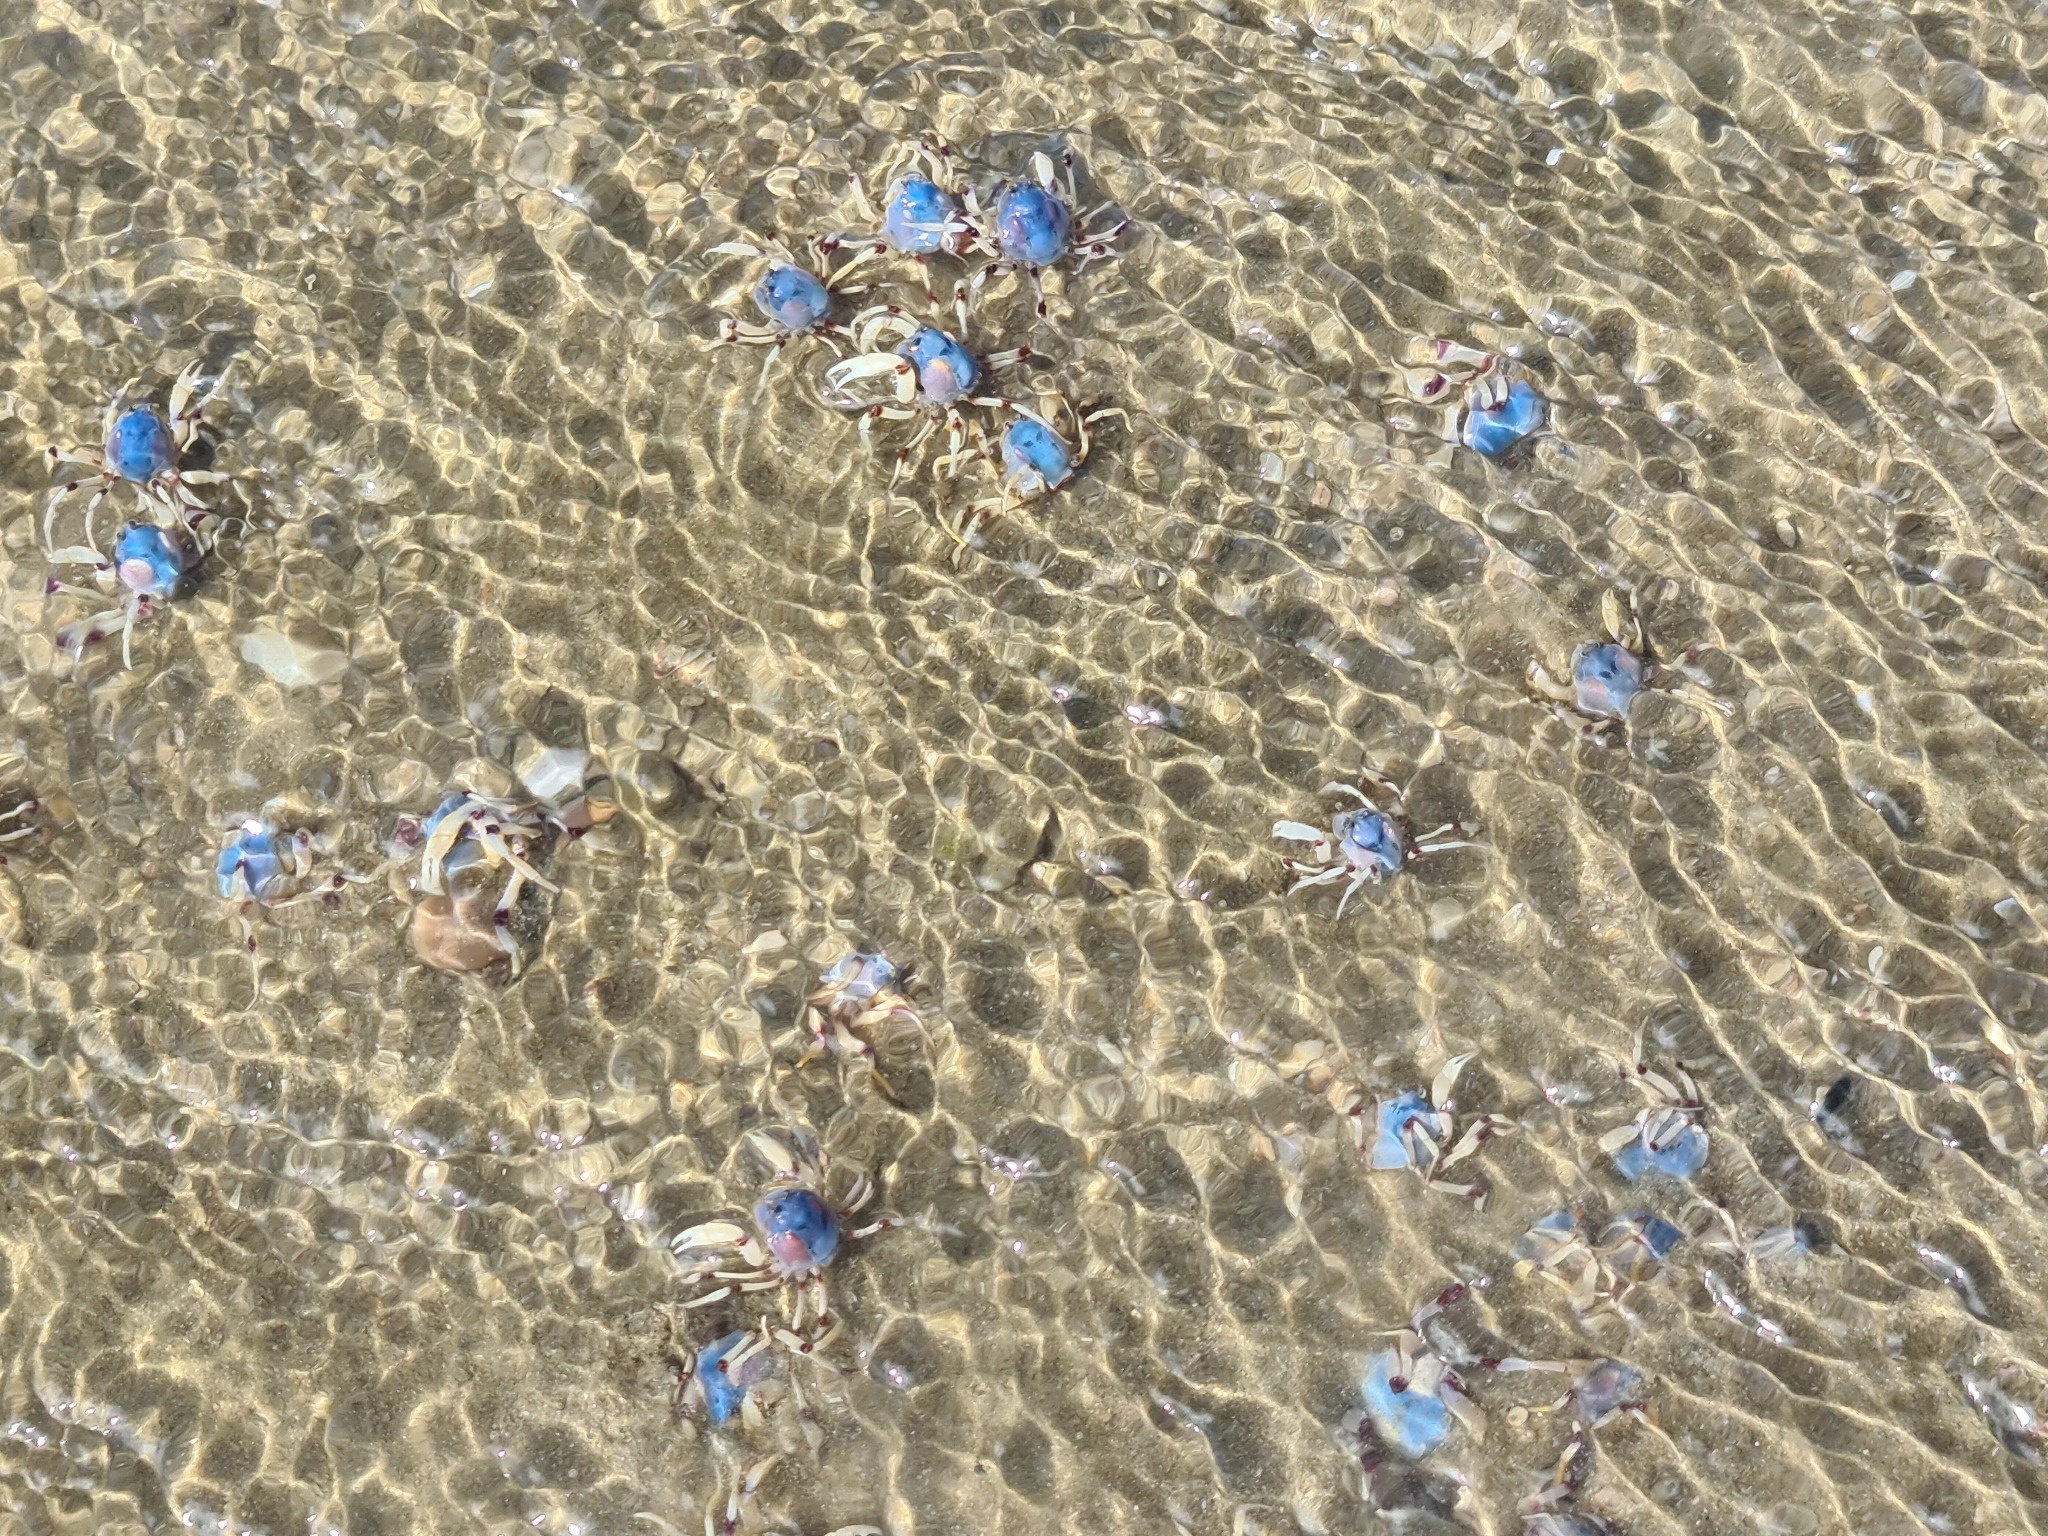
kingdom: Animalia
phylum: Arthropoda
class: Malacostraca
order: Decapoda
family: Mictyridae
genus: Mictyris
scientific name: Mictyris longicarpus
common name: Light-blue soldier crab
